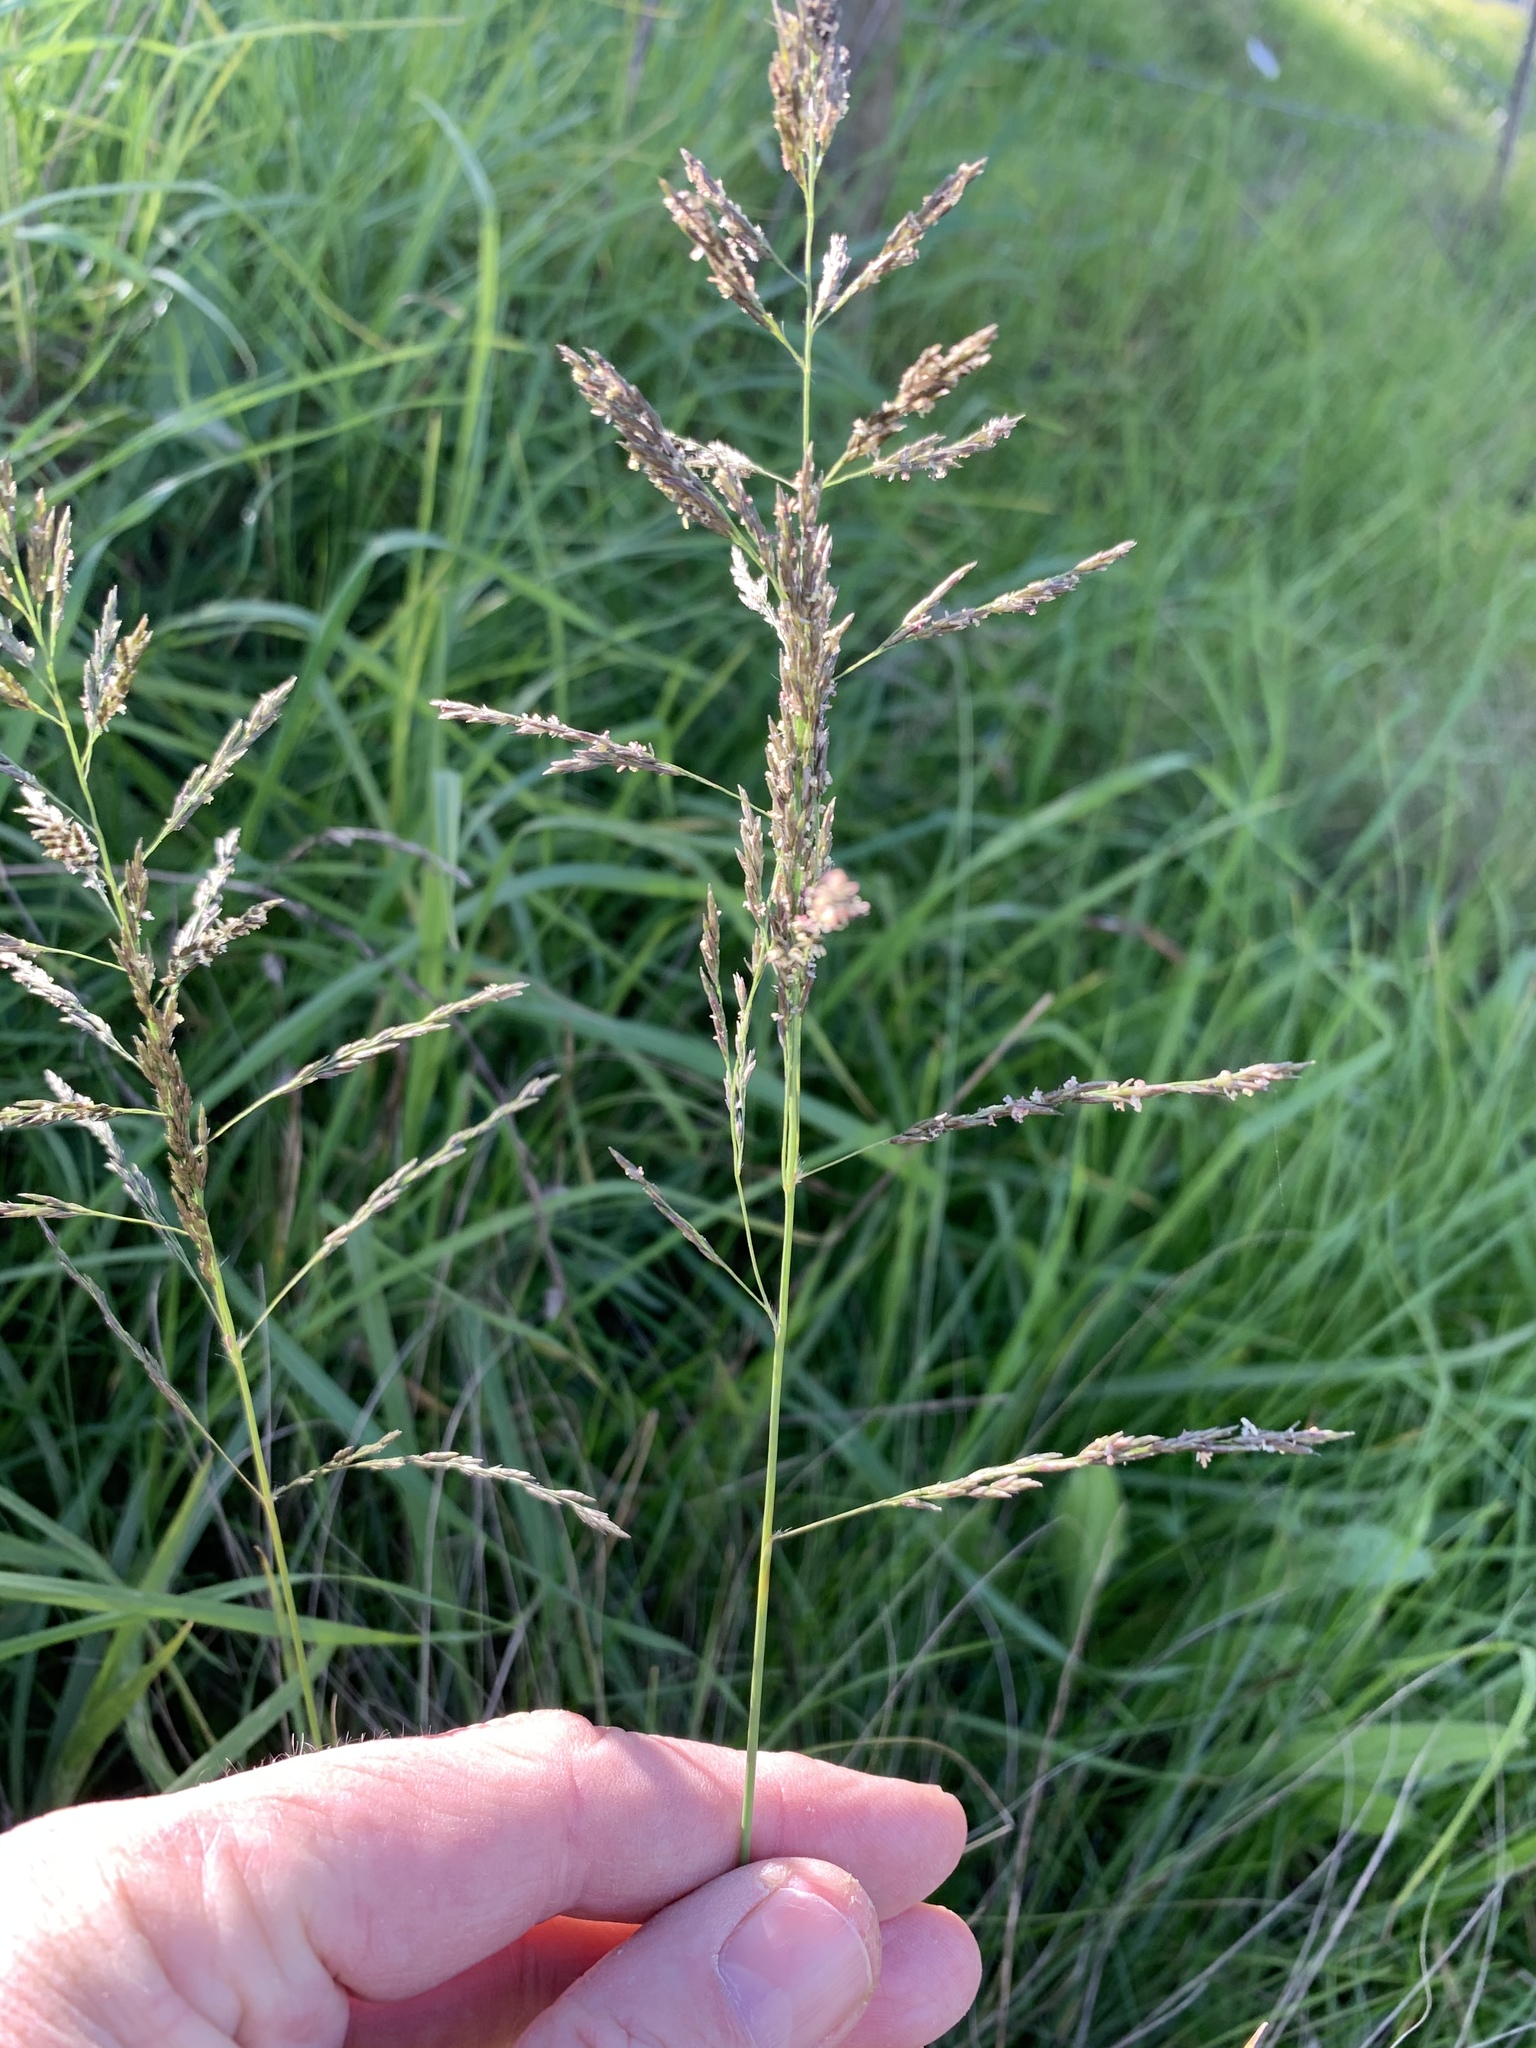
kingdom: Plantae
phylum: Tracheophyta
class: Liliopsida
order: Poales
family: Poaceae
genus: Eragrostis
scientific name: Eragrostis curvula
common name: African love-grass
